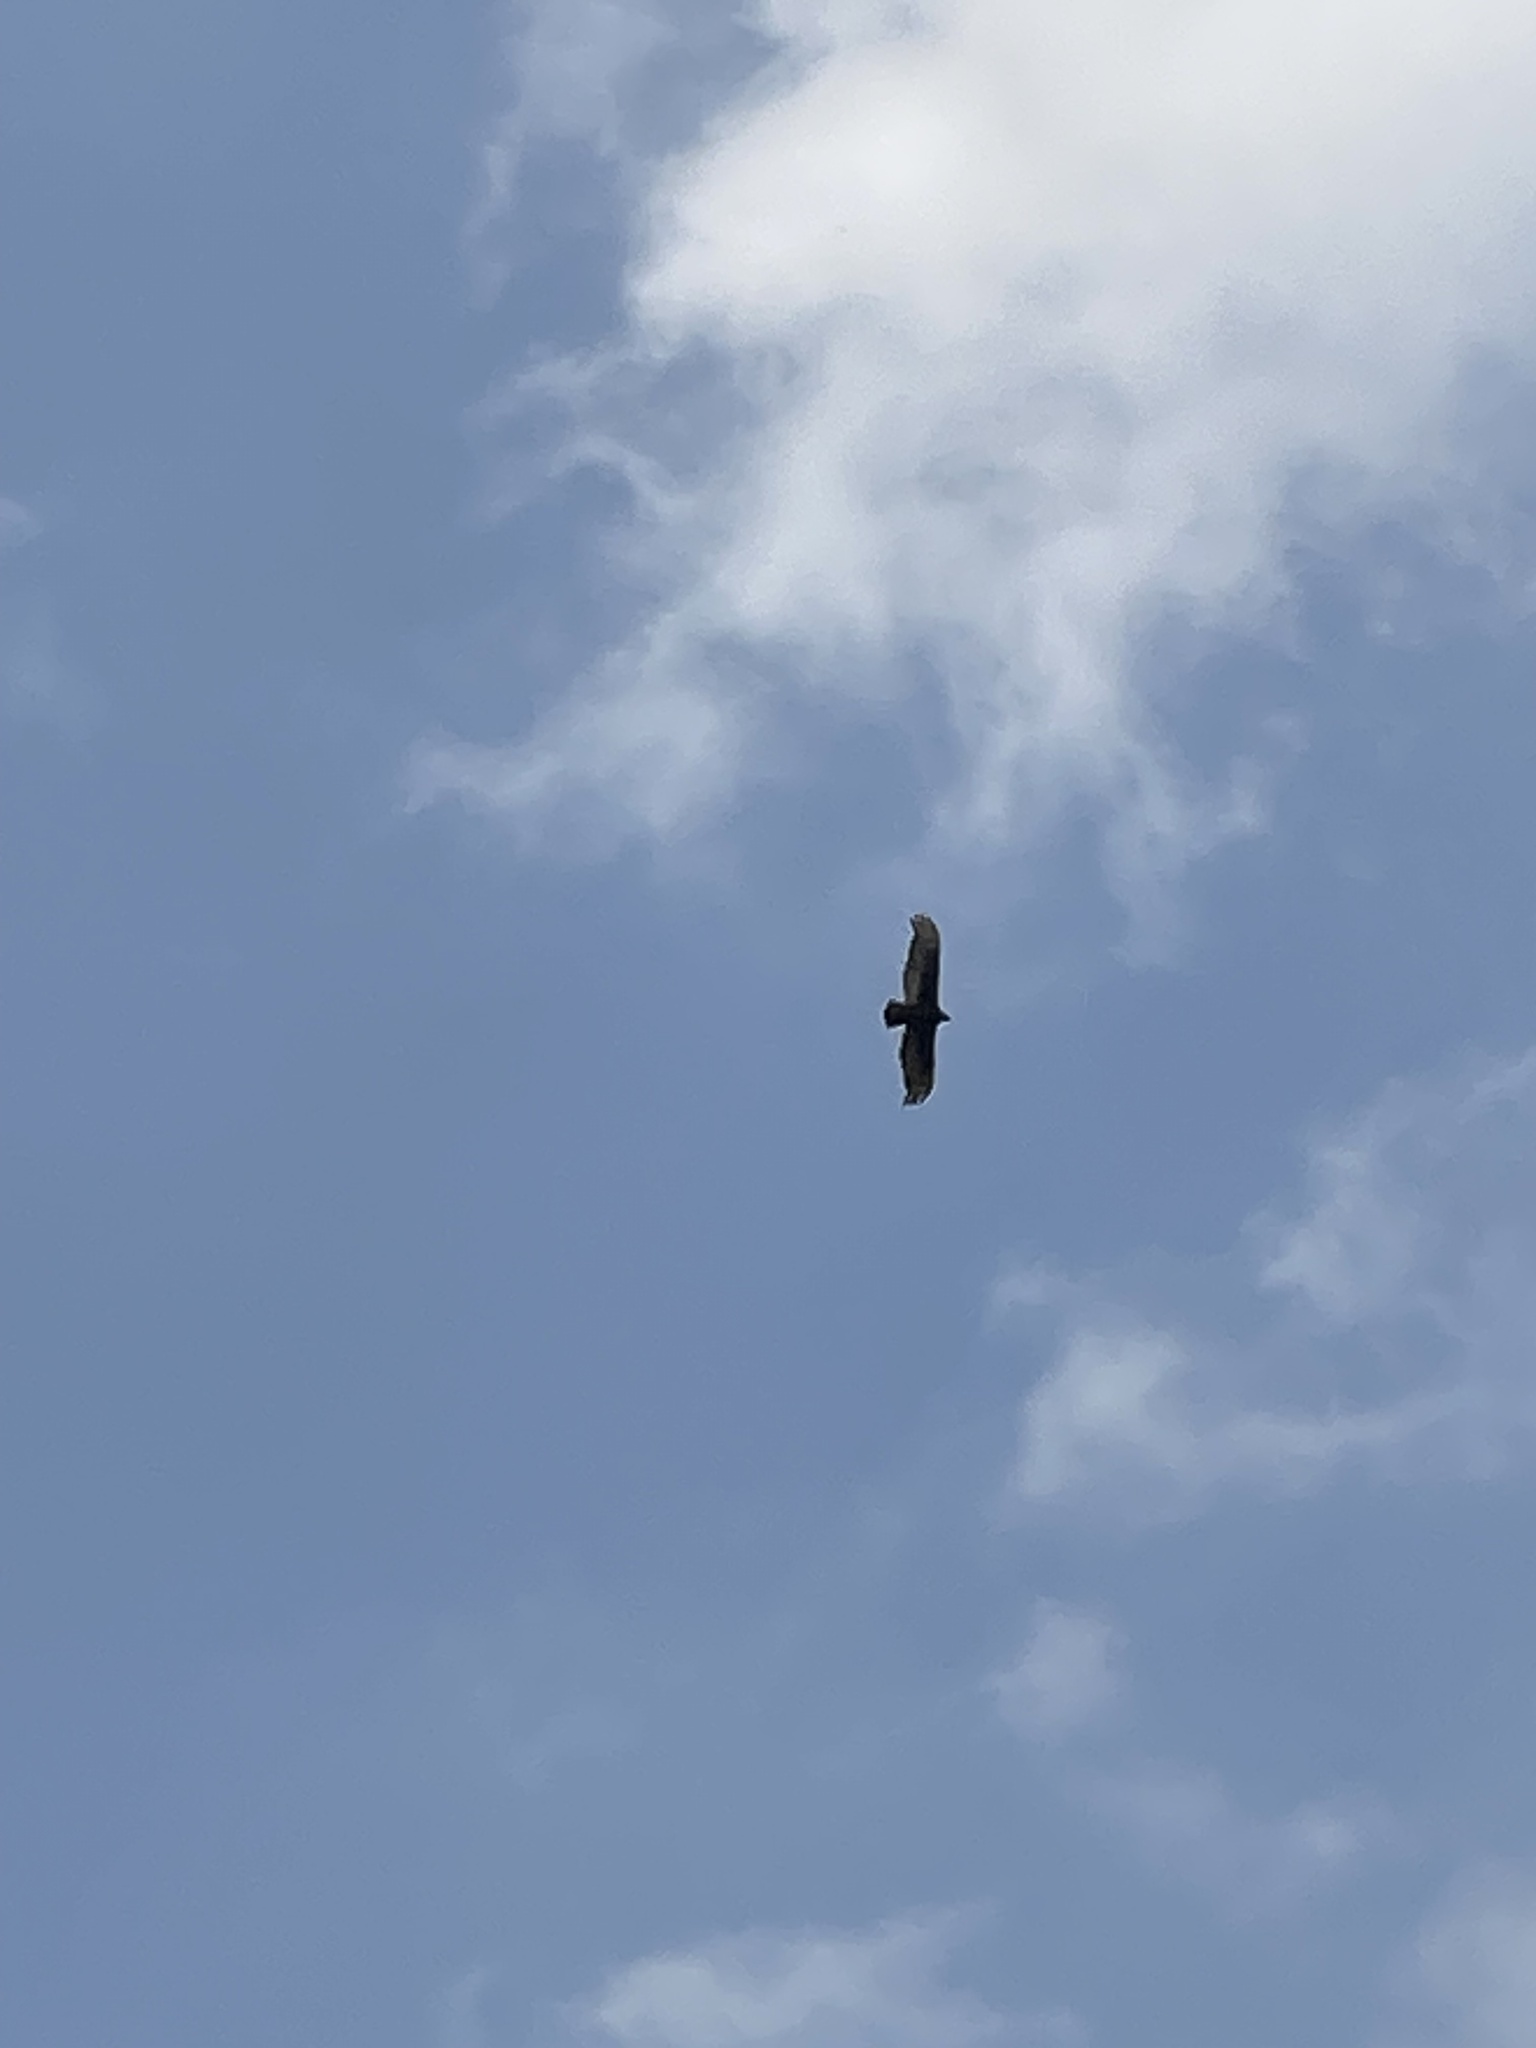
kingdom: Animalia
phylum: Chordata
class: Aves
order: Accipitriformes
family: Cathartidae
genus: Cathartes
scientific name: Cathartes aura
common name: Turkey vulture
